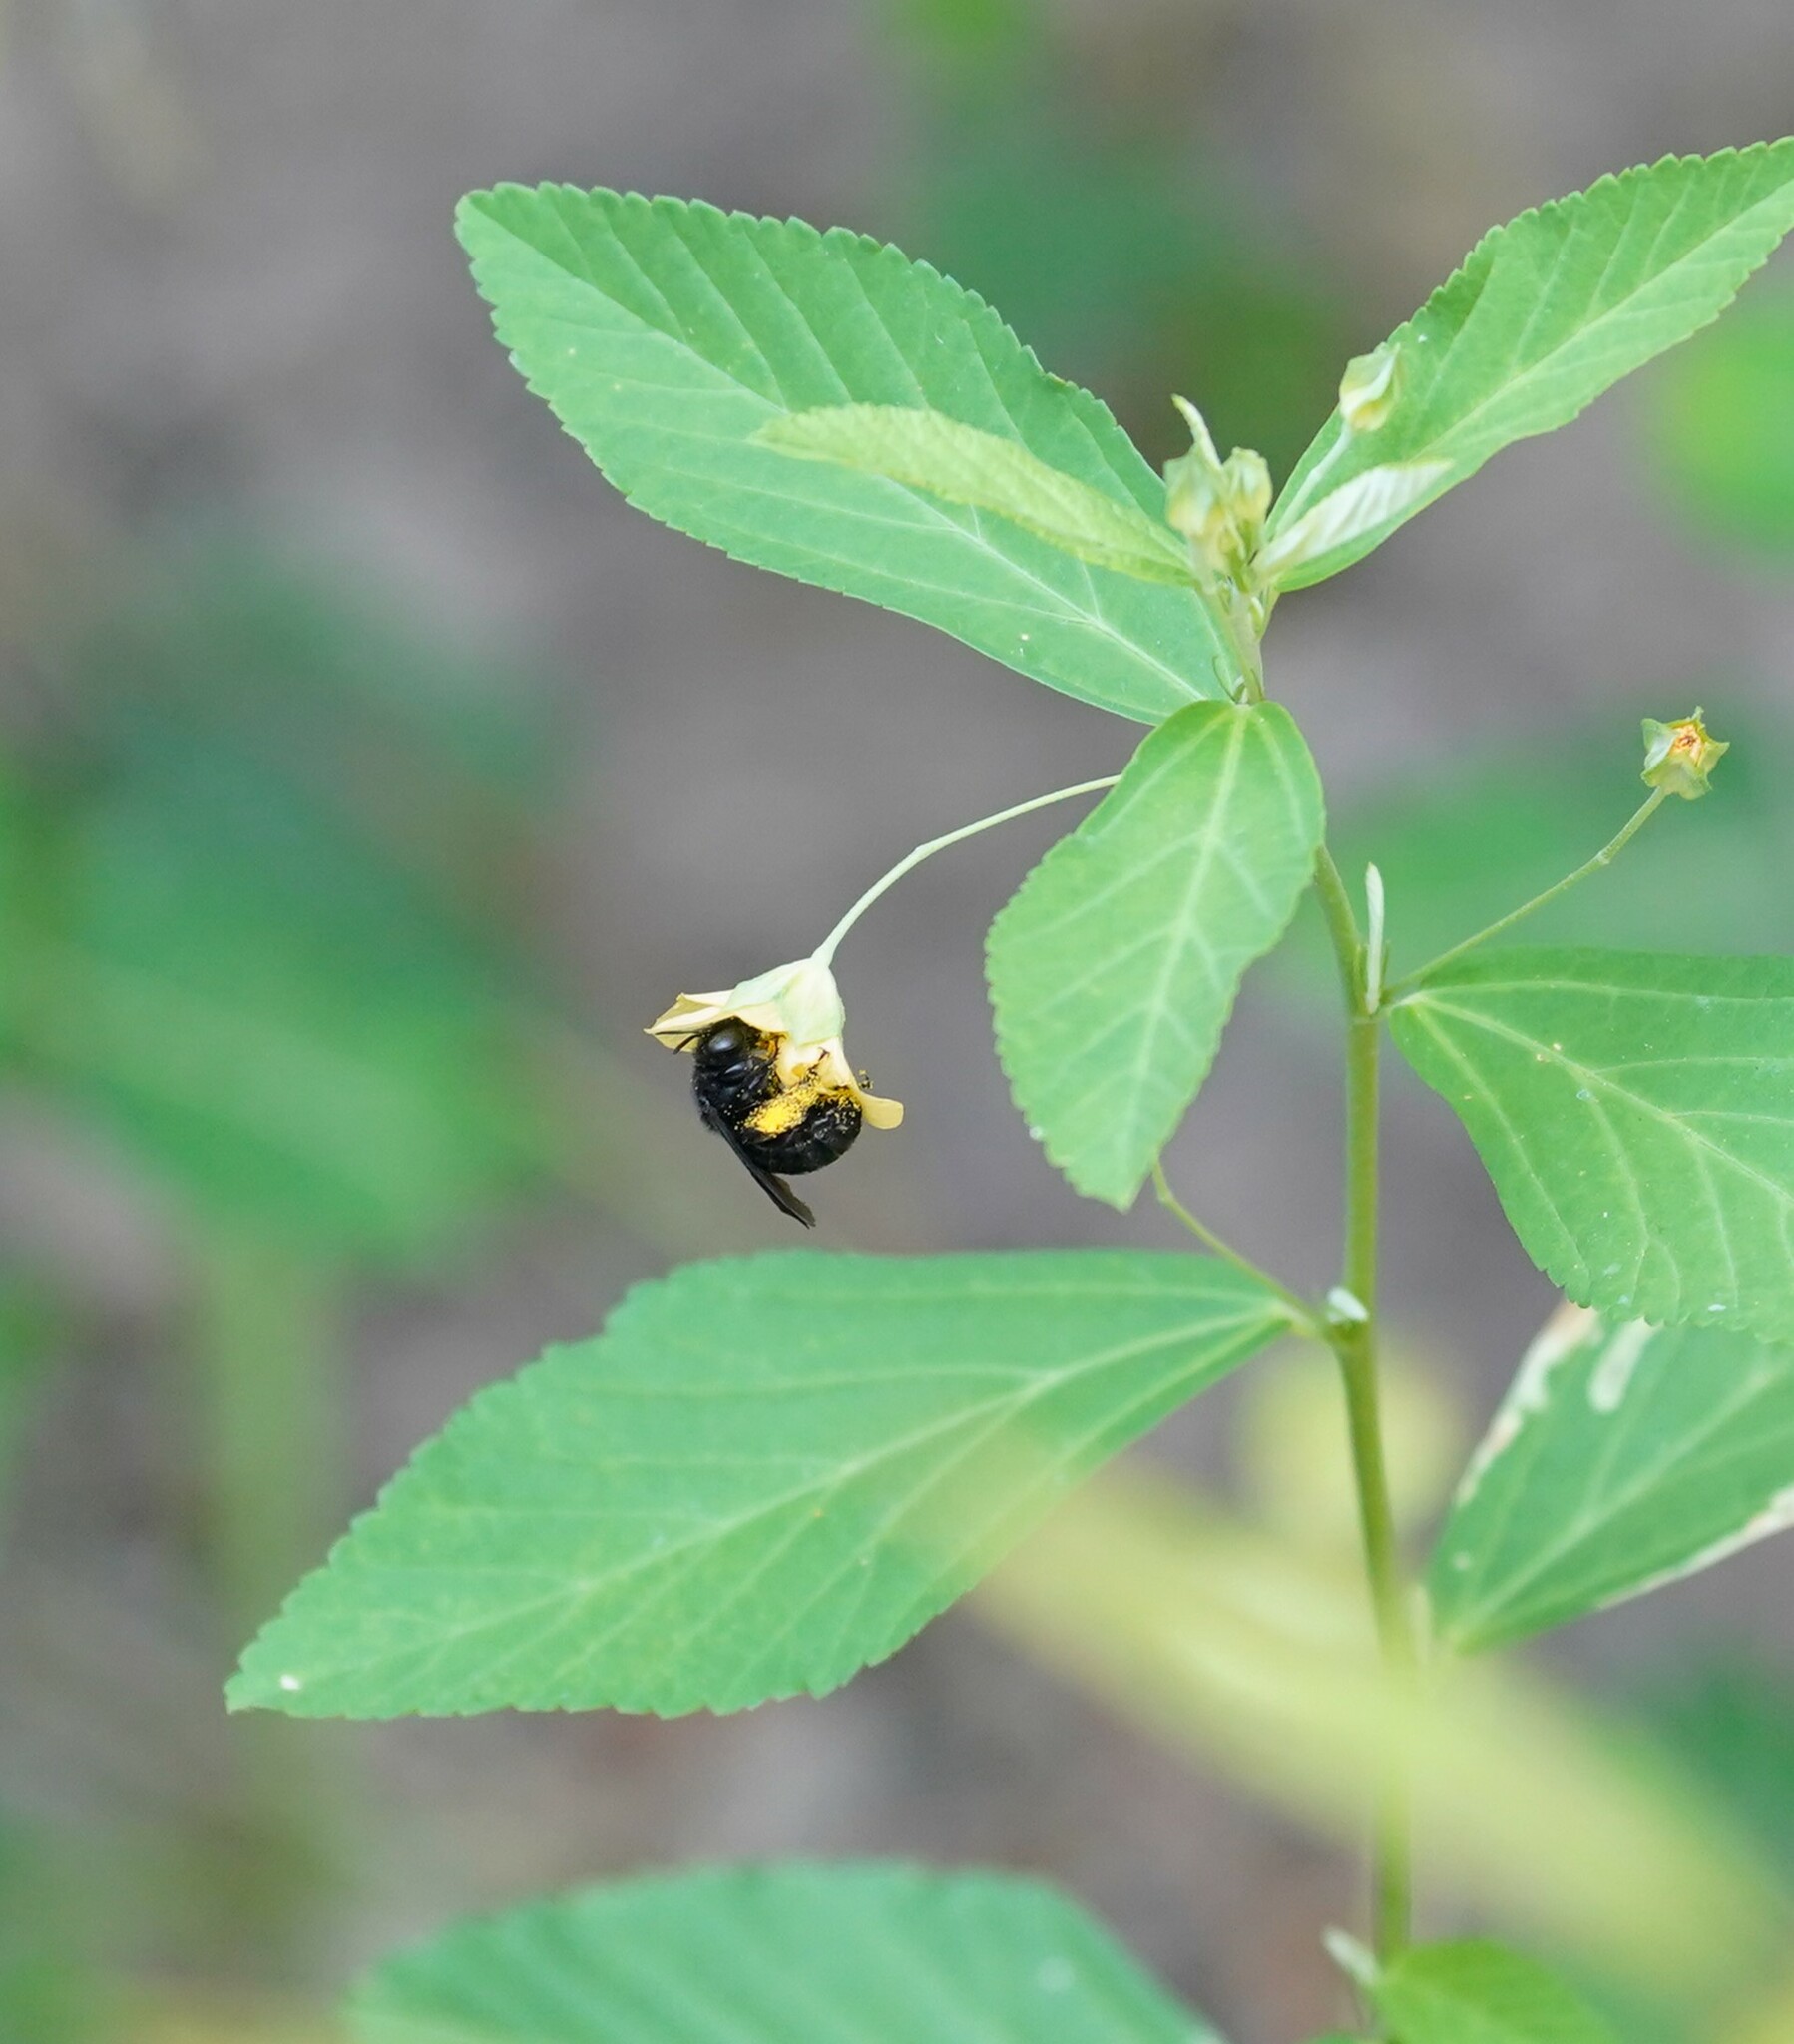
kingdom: Animalia
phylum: Arthropoda
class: Insecta
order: Hymenoptera
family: Apidae
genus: Melissodes
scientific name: Melissodes bimaculatus
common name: Two-spotted long-horned bee
